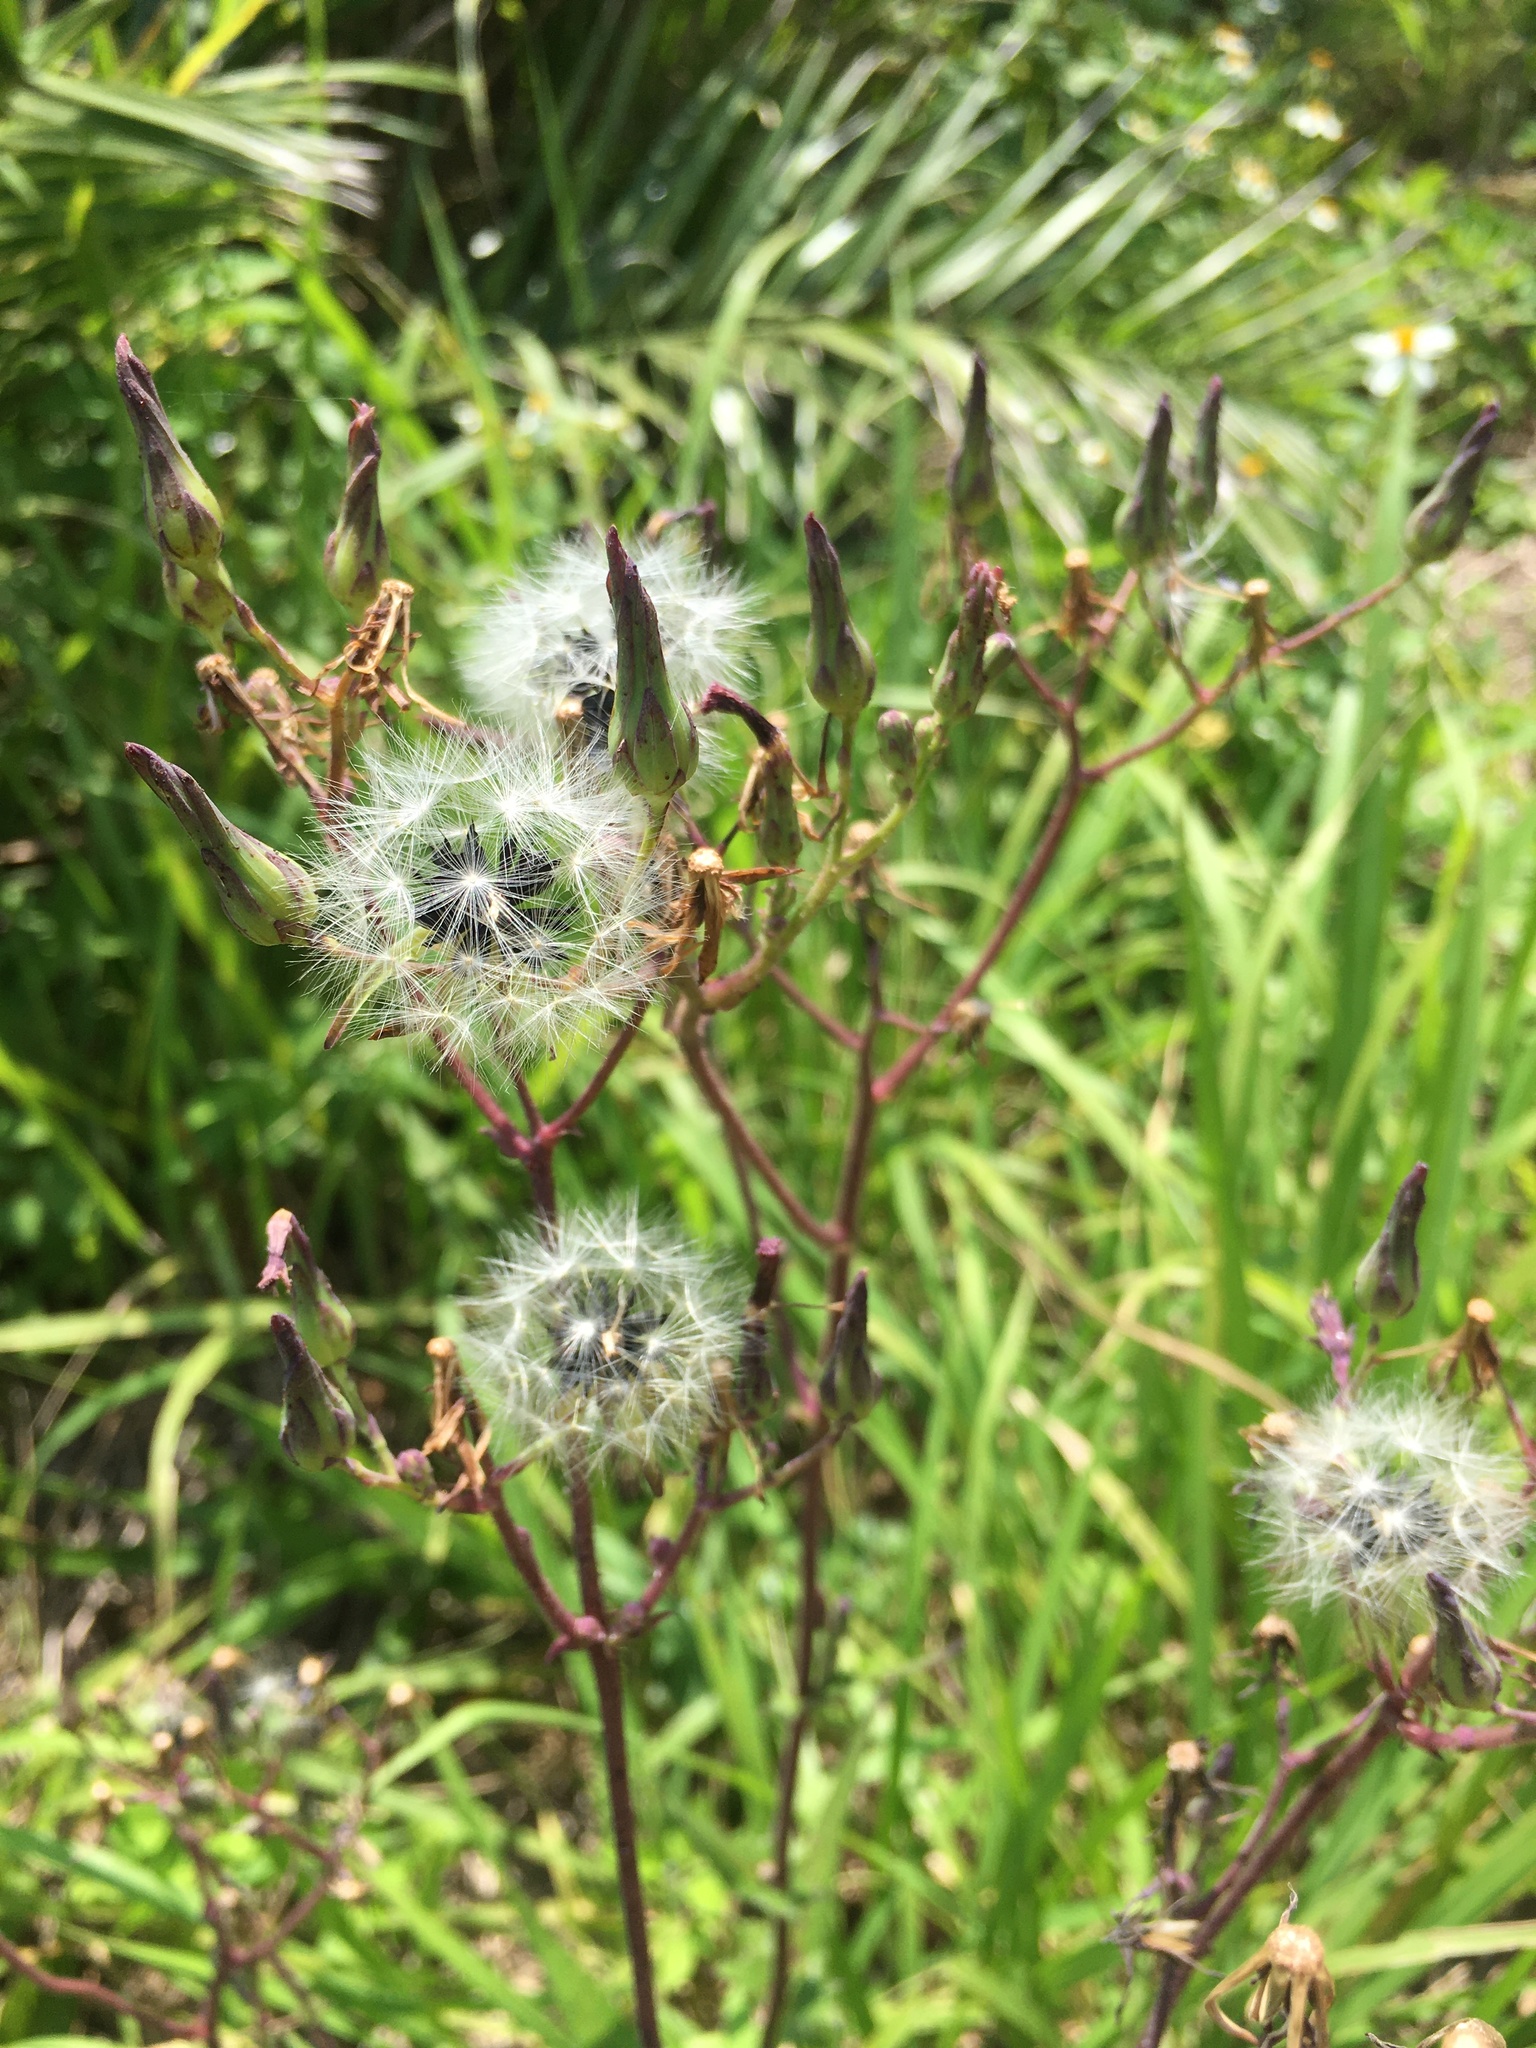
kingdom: Plantae
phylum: Tracheophyta
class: Magnoliopsida
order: Asterales
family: Asteraceae
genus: Lactuca
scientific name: Lactuca indica
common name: Wild lettuce
